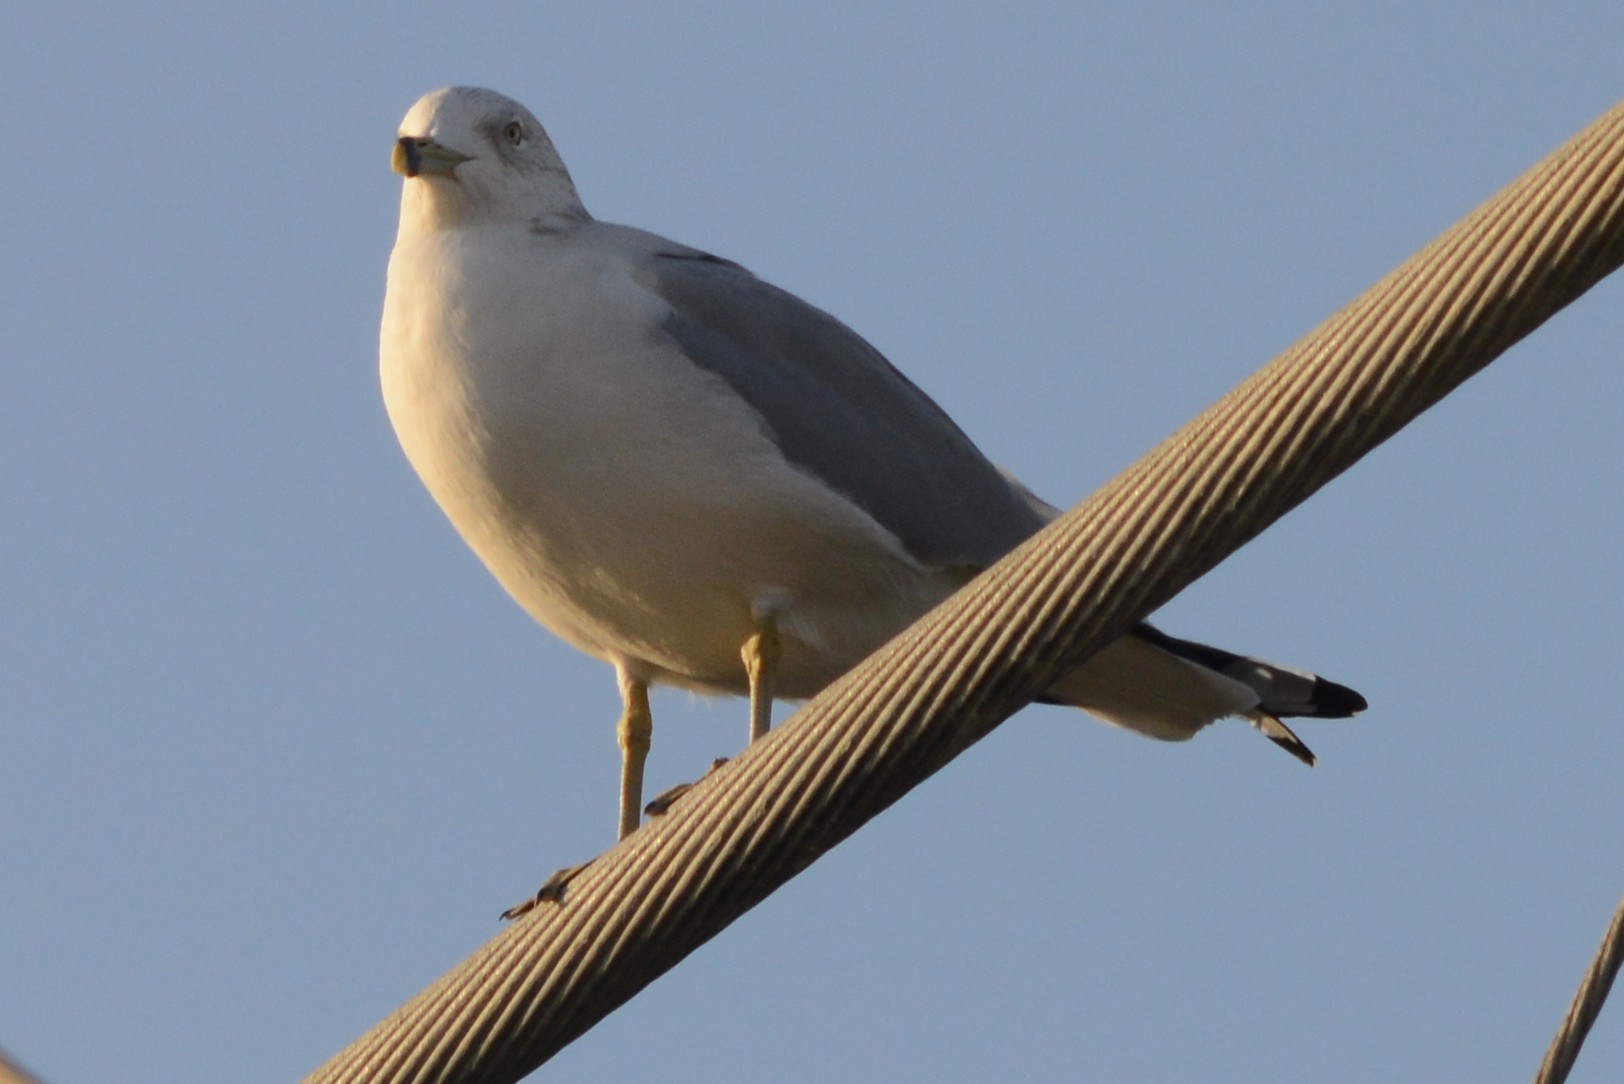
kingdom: Animalia
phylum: Chordata
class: Aves
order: Charadriiformes
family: Laridae
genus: Larus
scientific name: Larus delawarensis
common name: Ring-billed gull
